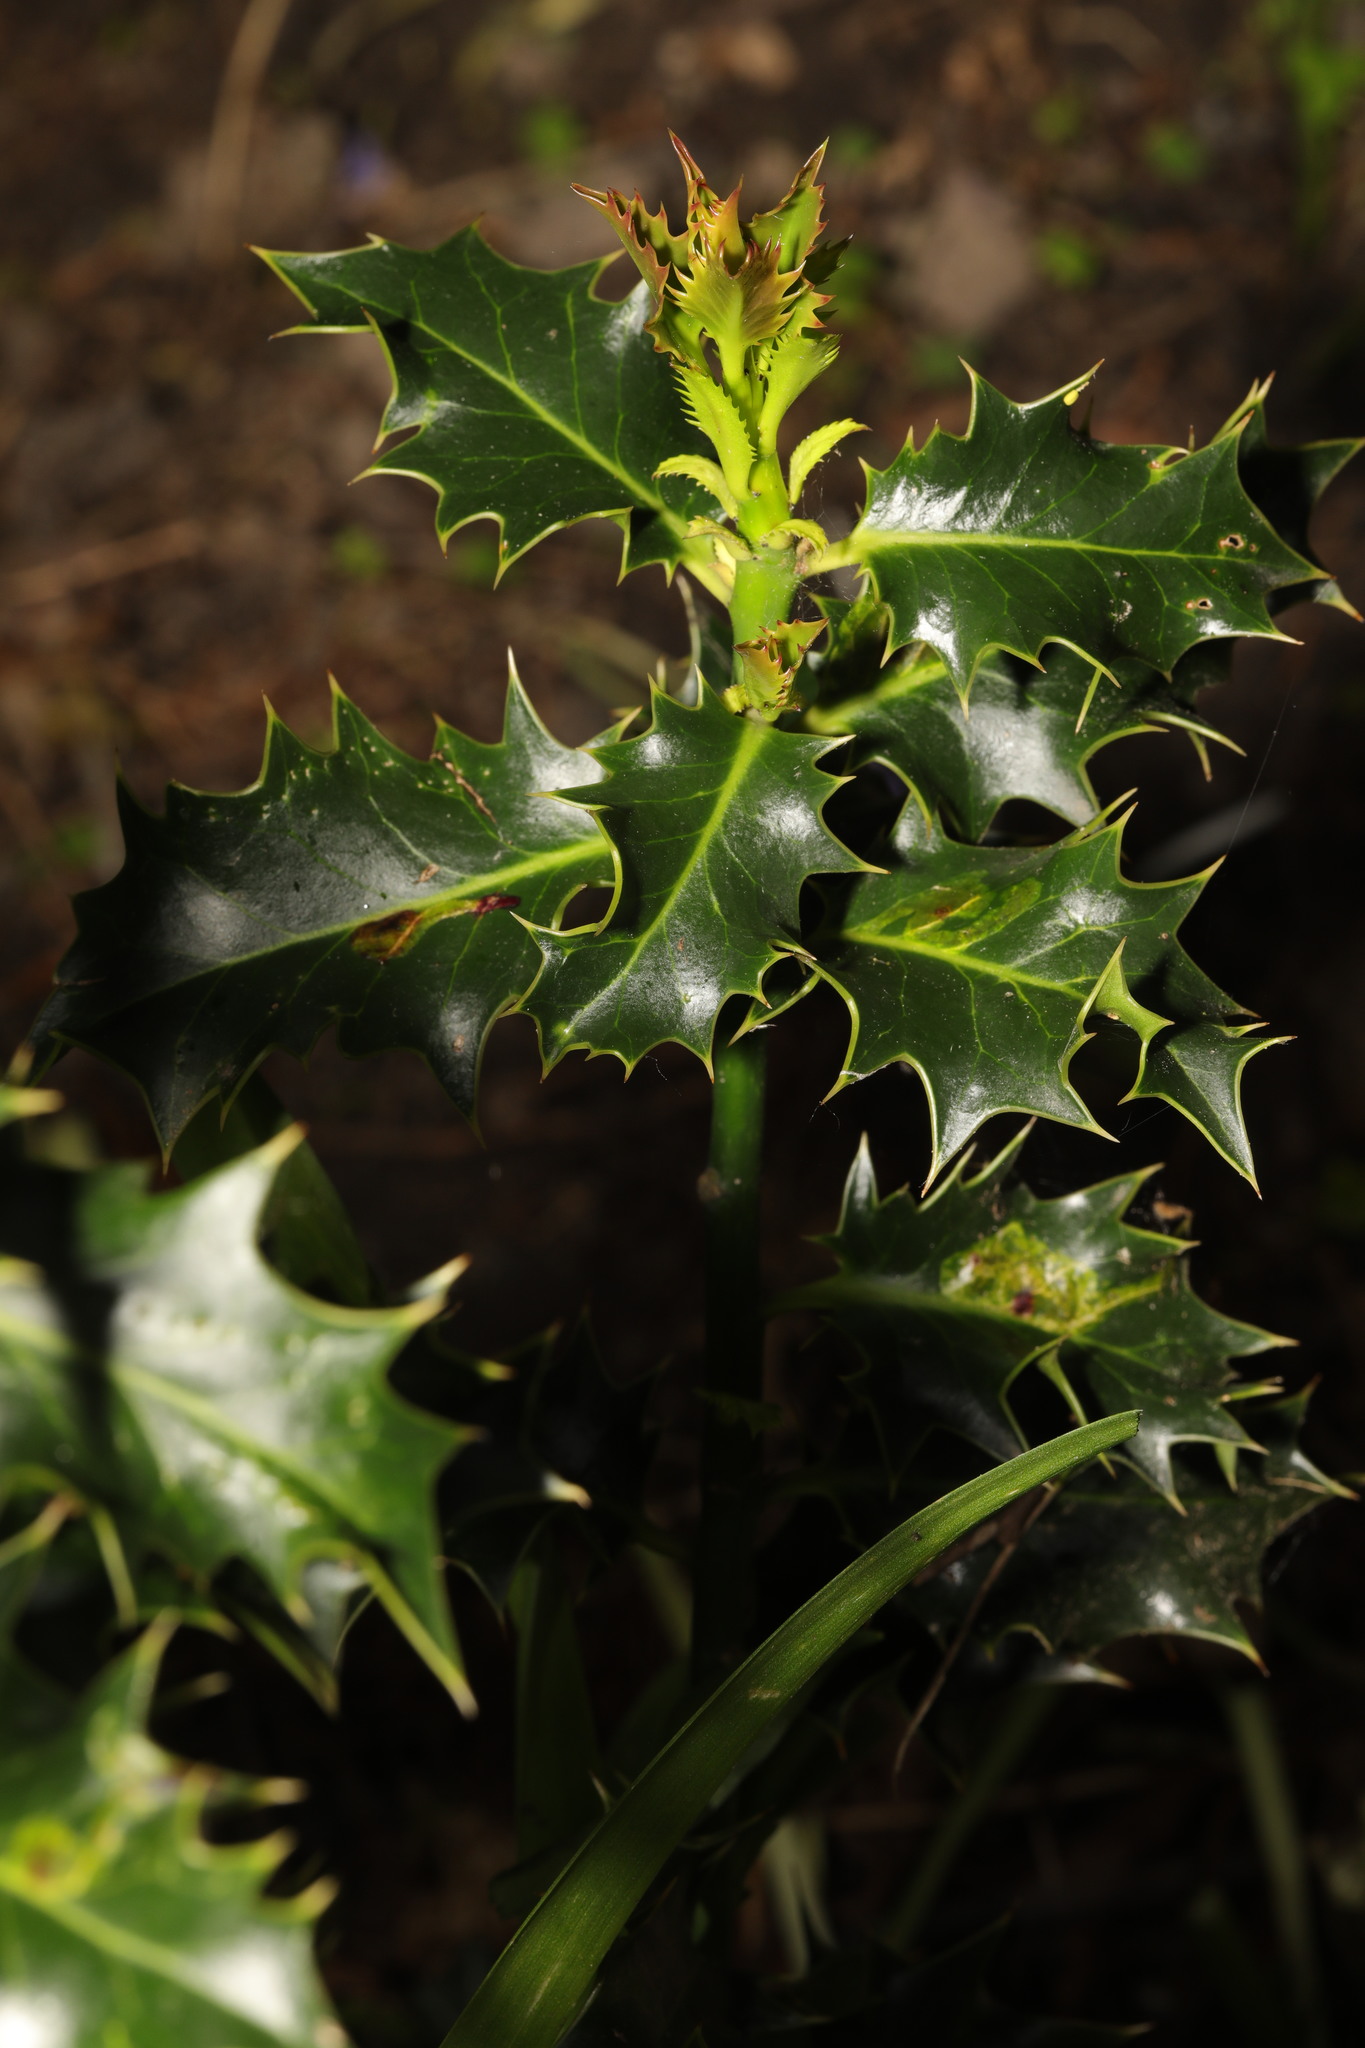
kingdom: Plantae
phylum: Tracheophyta
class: Magnoliopsida
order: Aquifoliales
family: Aquifoliaceae
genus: Ilex
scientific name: Ilex aquifolium
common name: English holly
